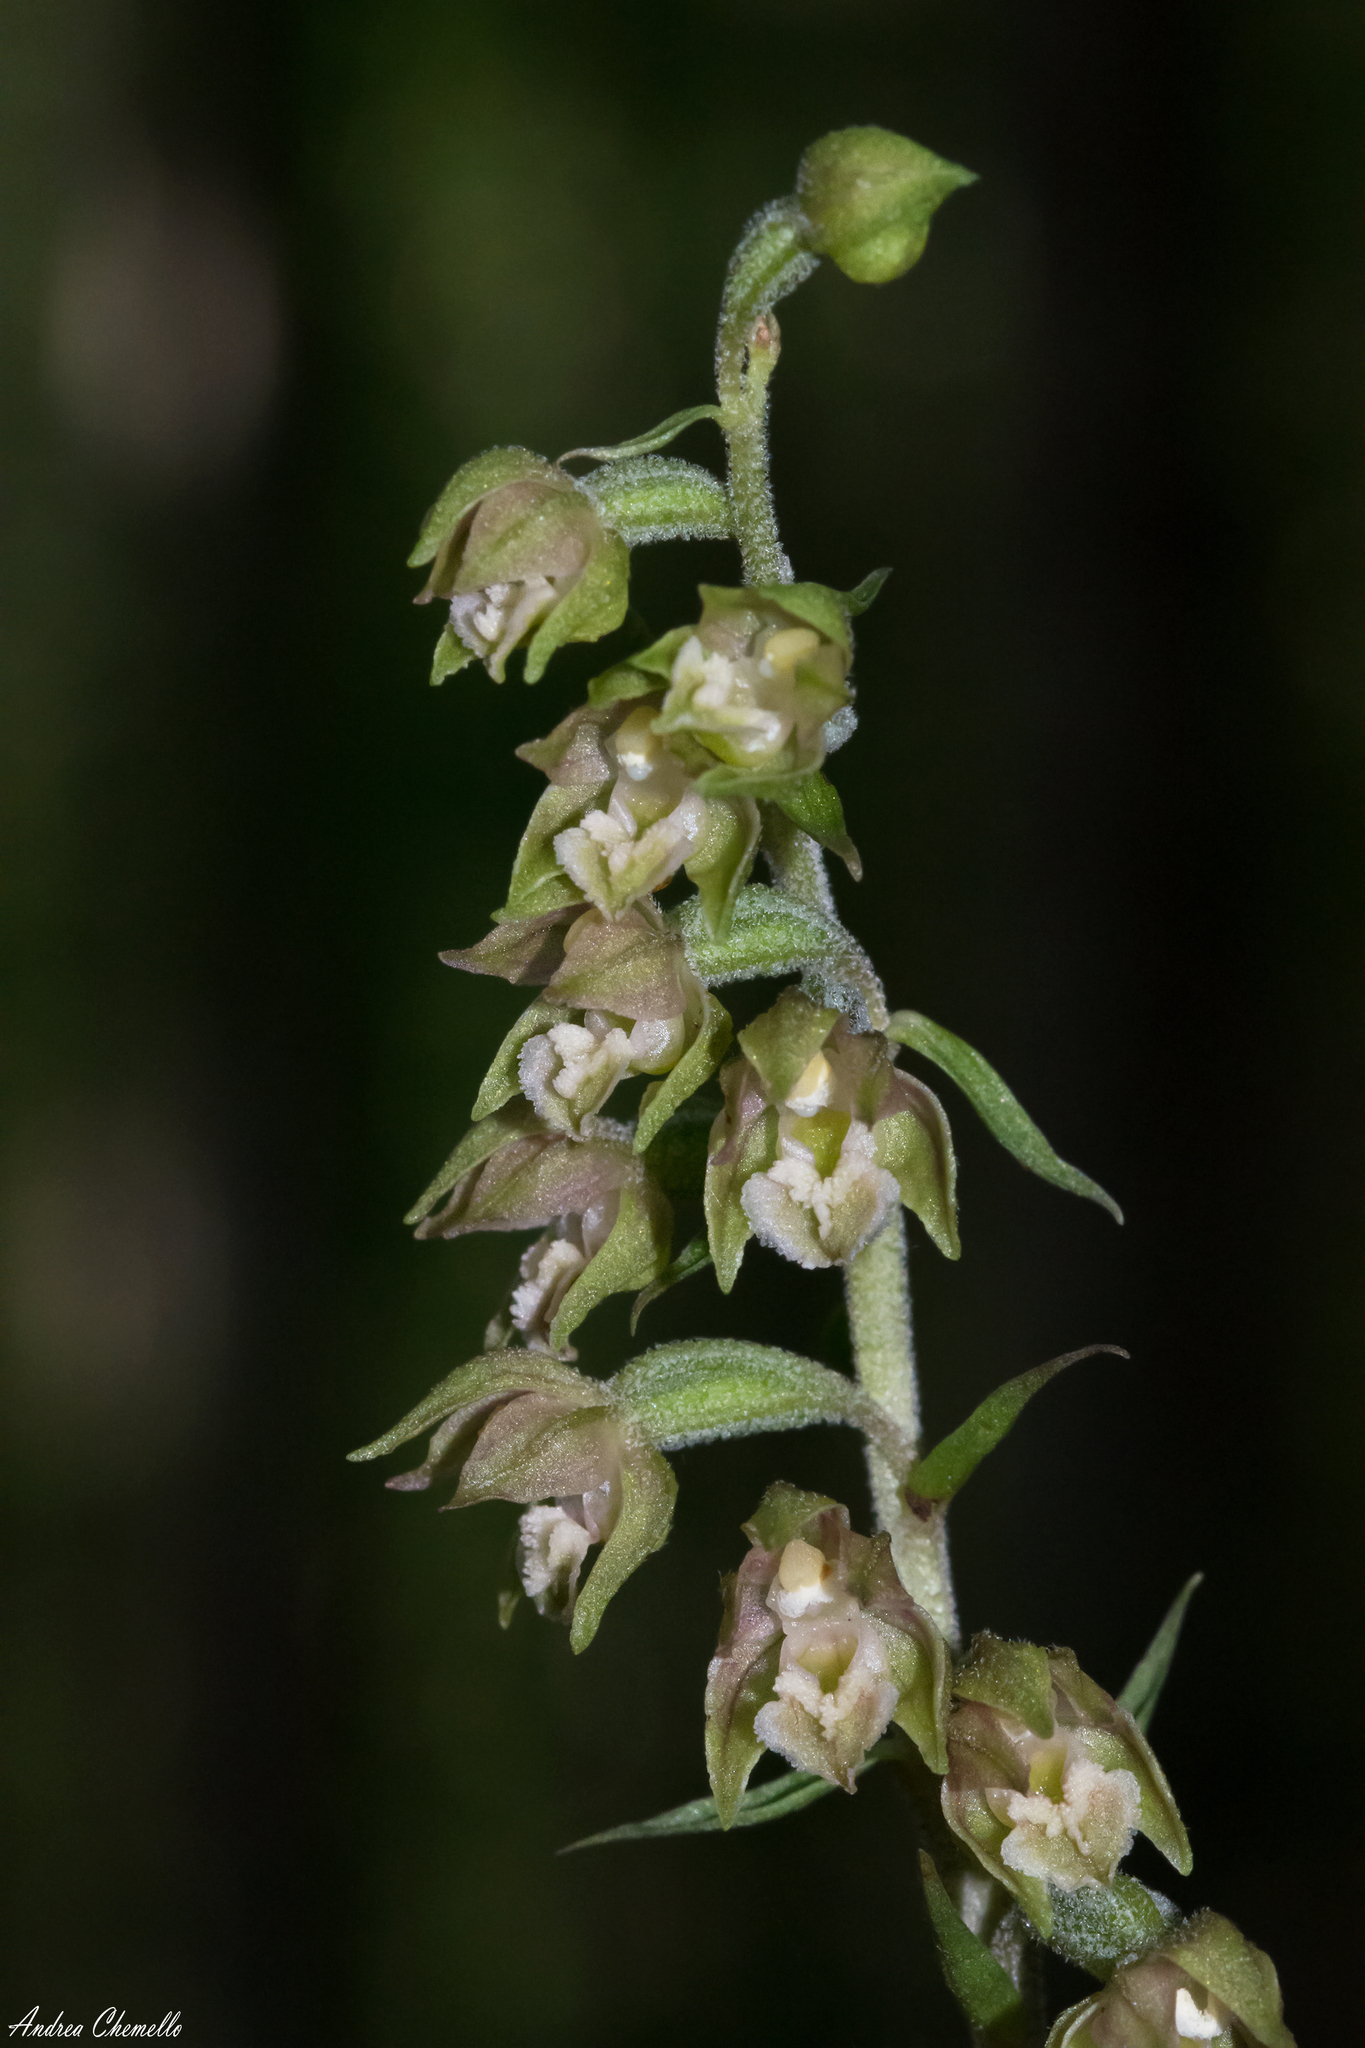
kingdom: Plantae
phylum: Tracheophyta
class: Liliopsida
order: Asparagales
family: Orchidaceae
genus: Epipactis
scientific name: Epipactis microphylla
